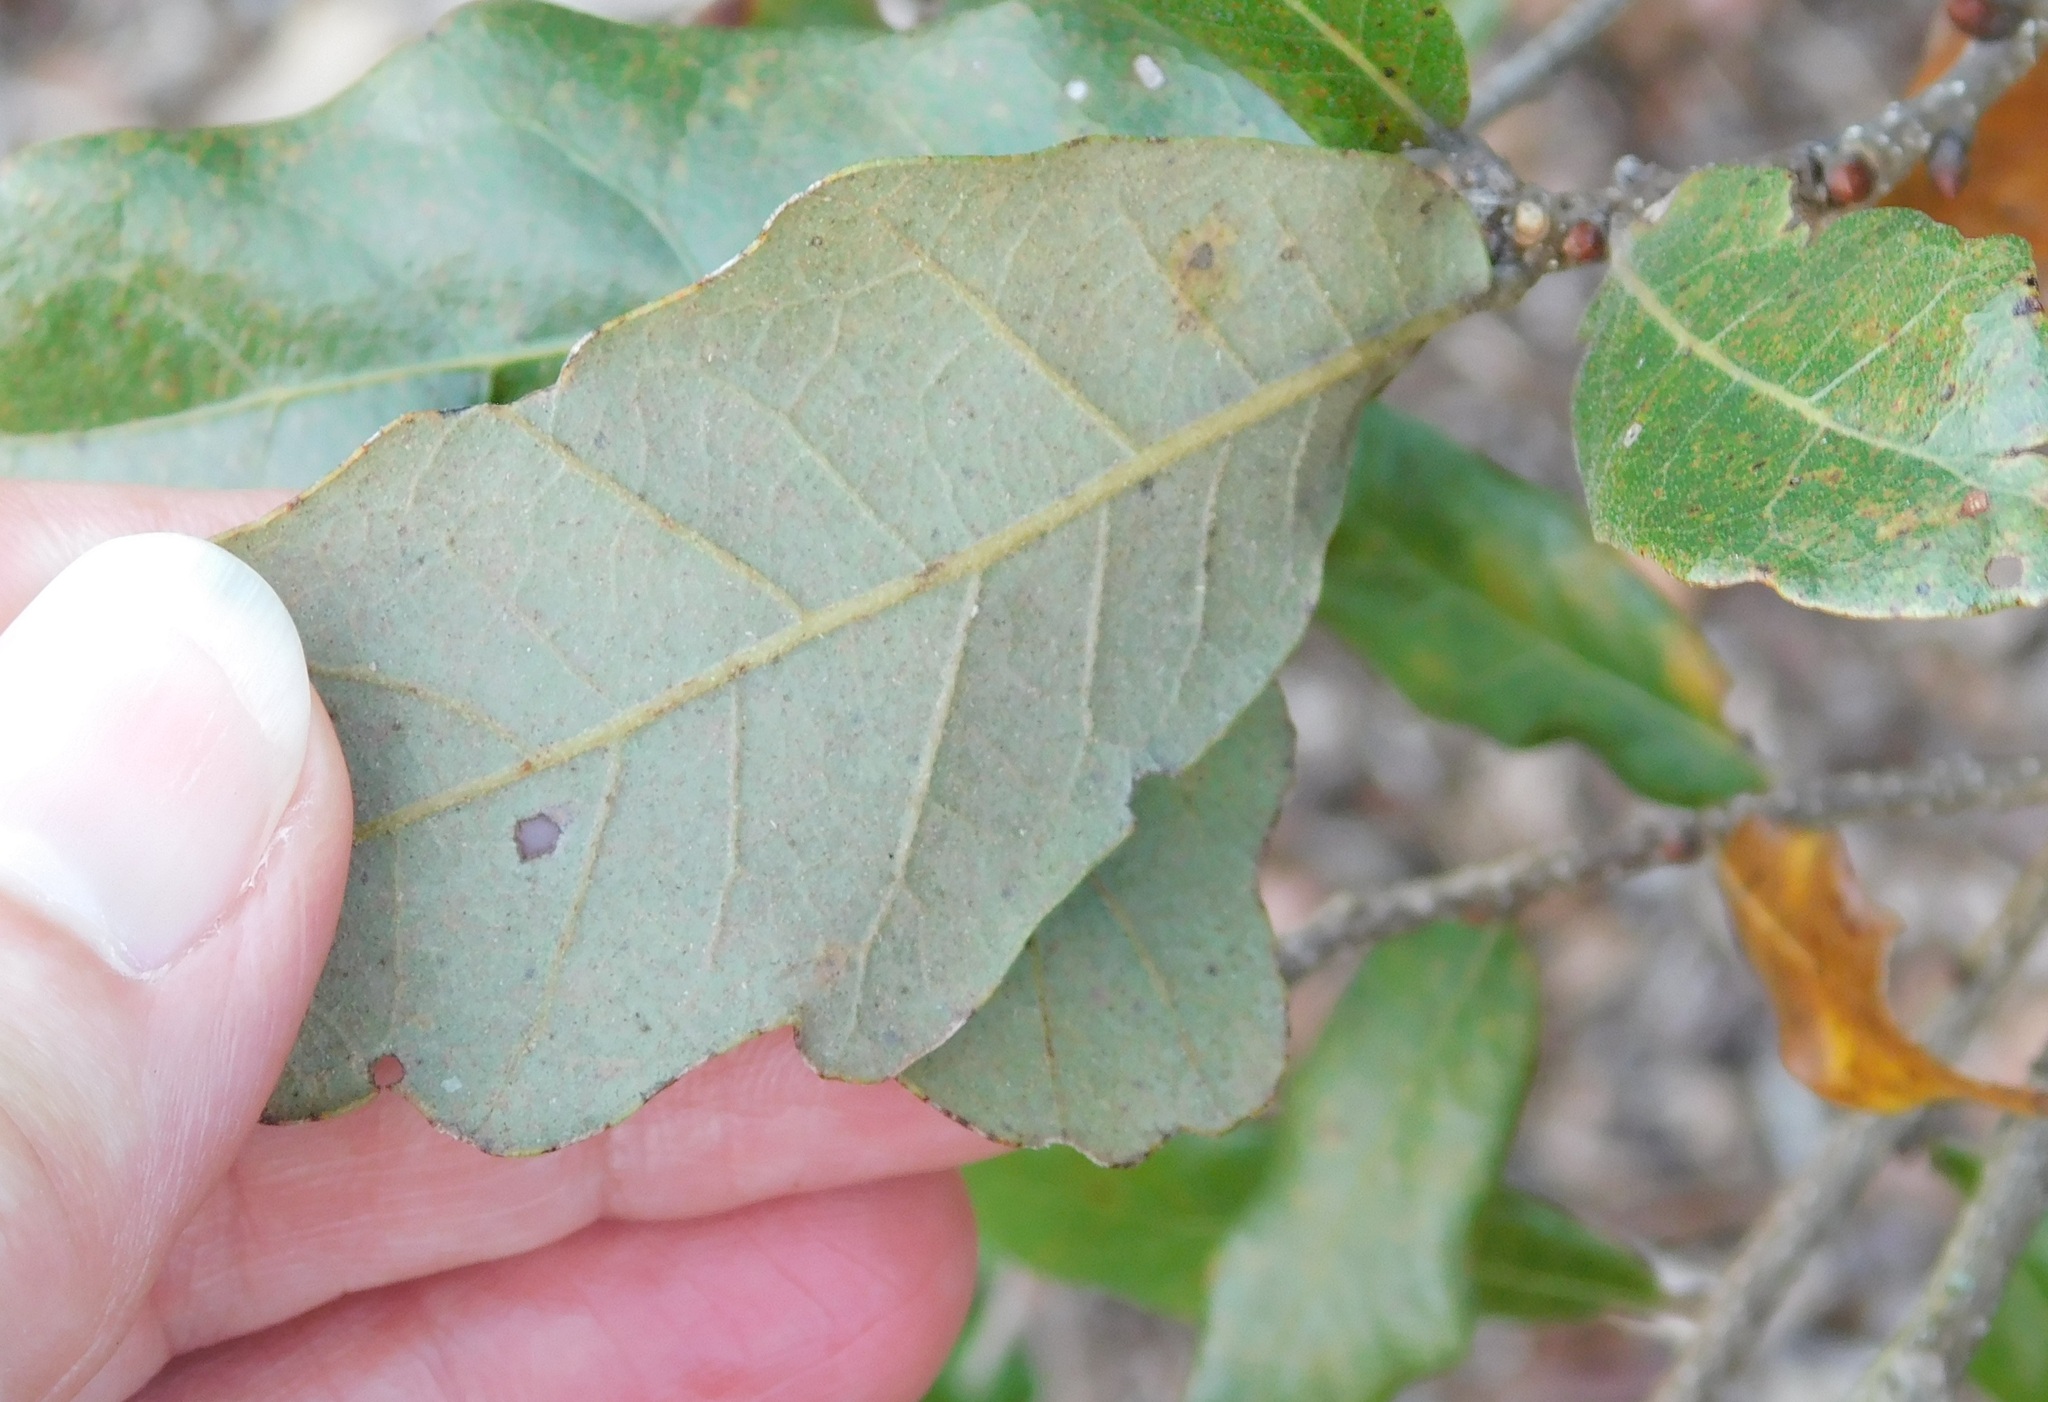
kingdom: Plantae
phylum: Tracheophyta
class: Magnoliopsida
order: Fagales
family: Fagaceae
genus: Quercus
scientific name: Quercus chapmanii
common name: Chapman oak
